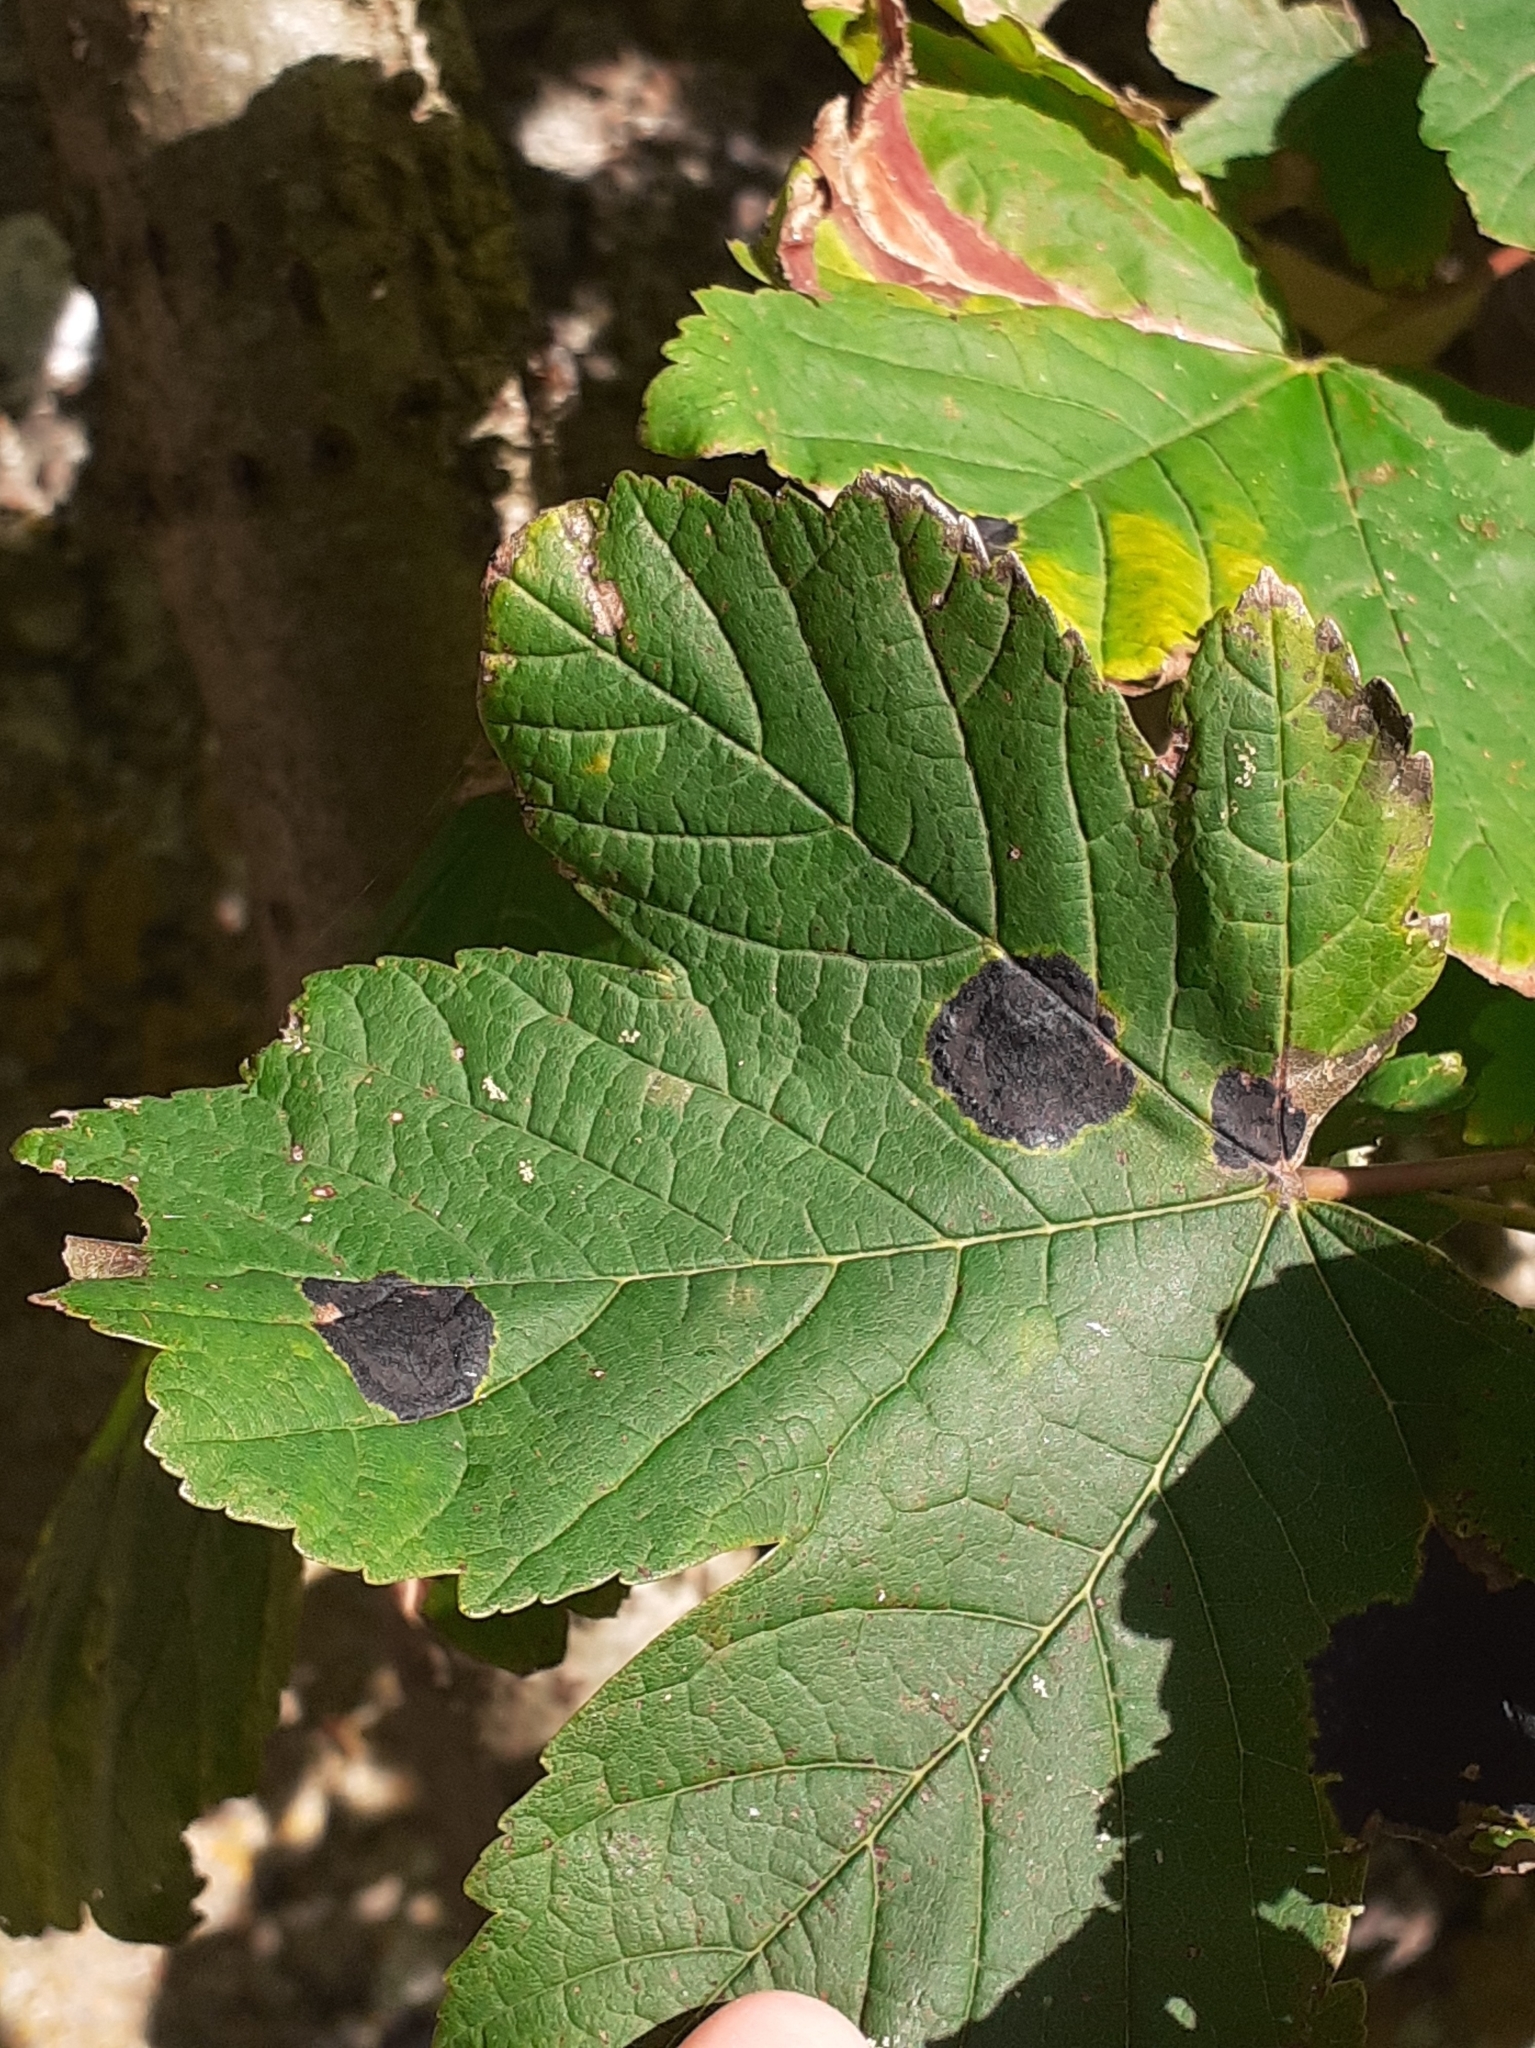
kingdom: Fungi
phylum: Ascomycota
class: Leotiomycetes
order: Rhytismatales
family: Rhytismataceae
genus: Rhytisma
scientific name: Rhytisma acerinum
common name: European tar spot
